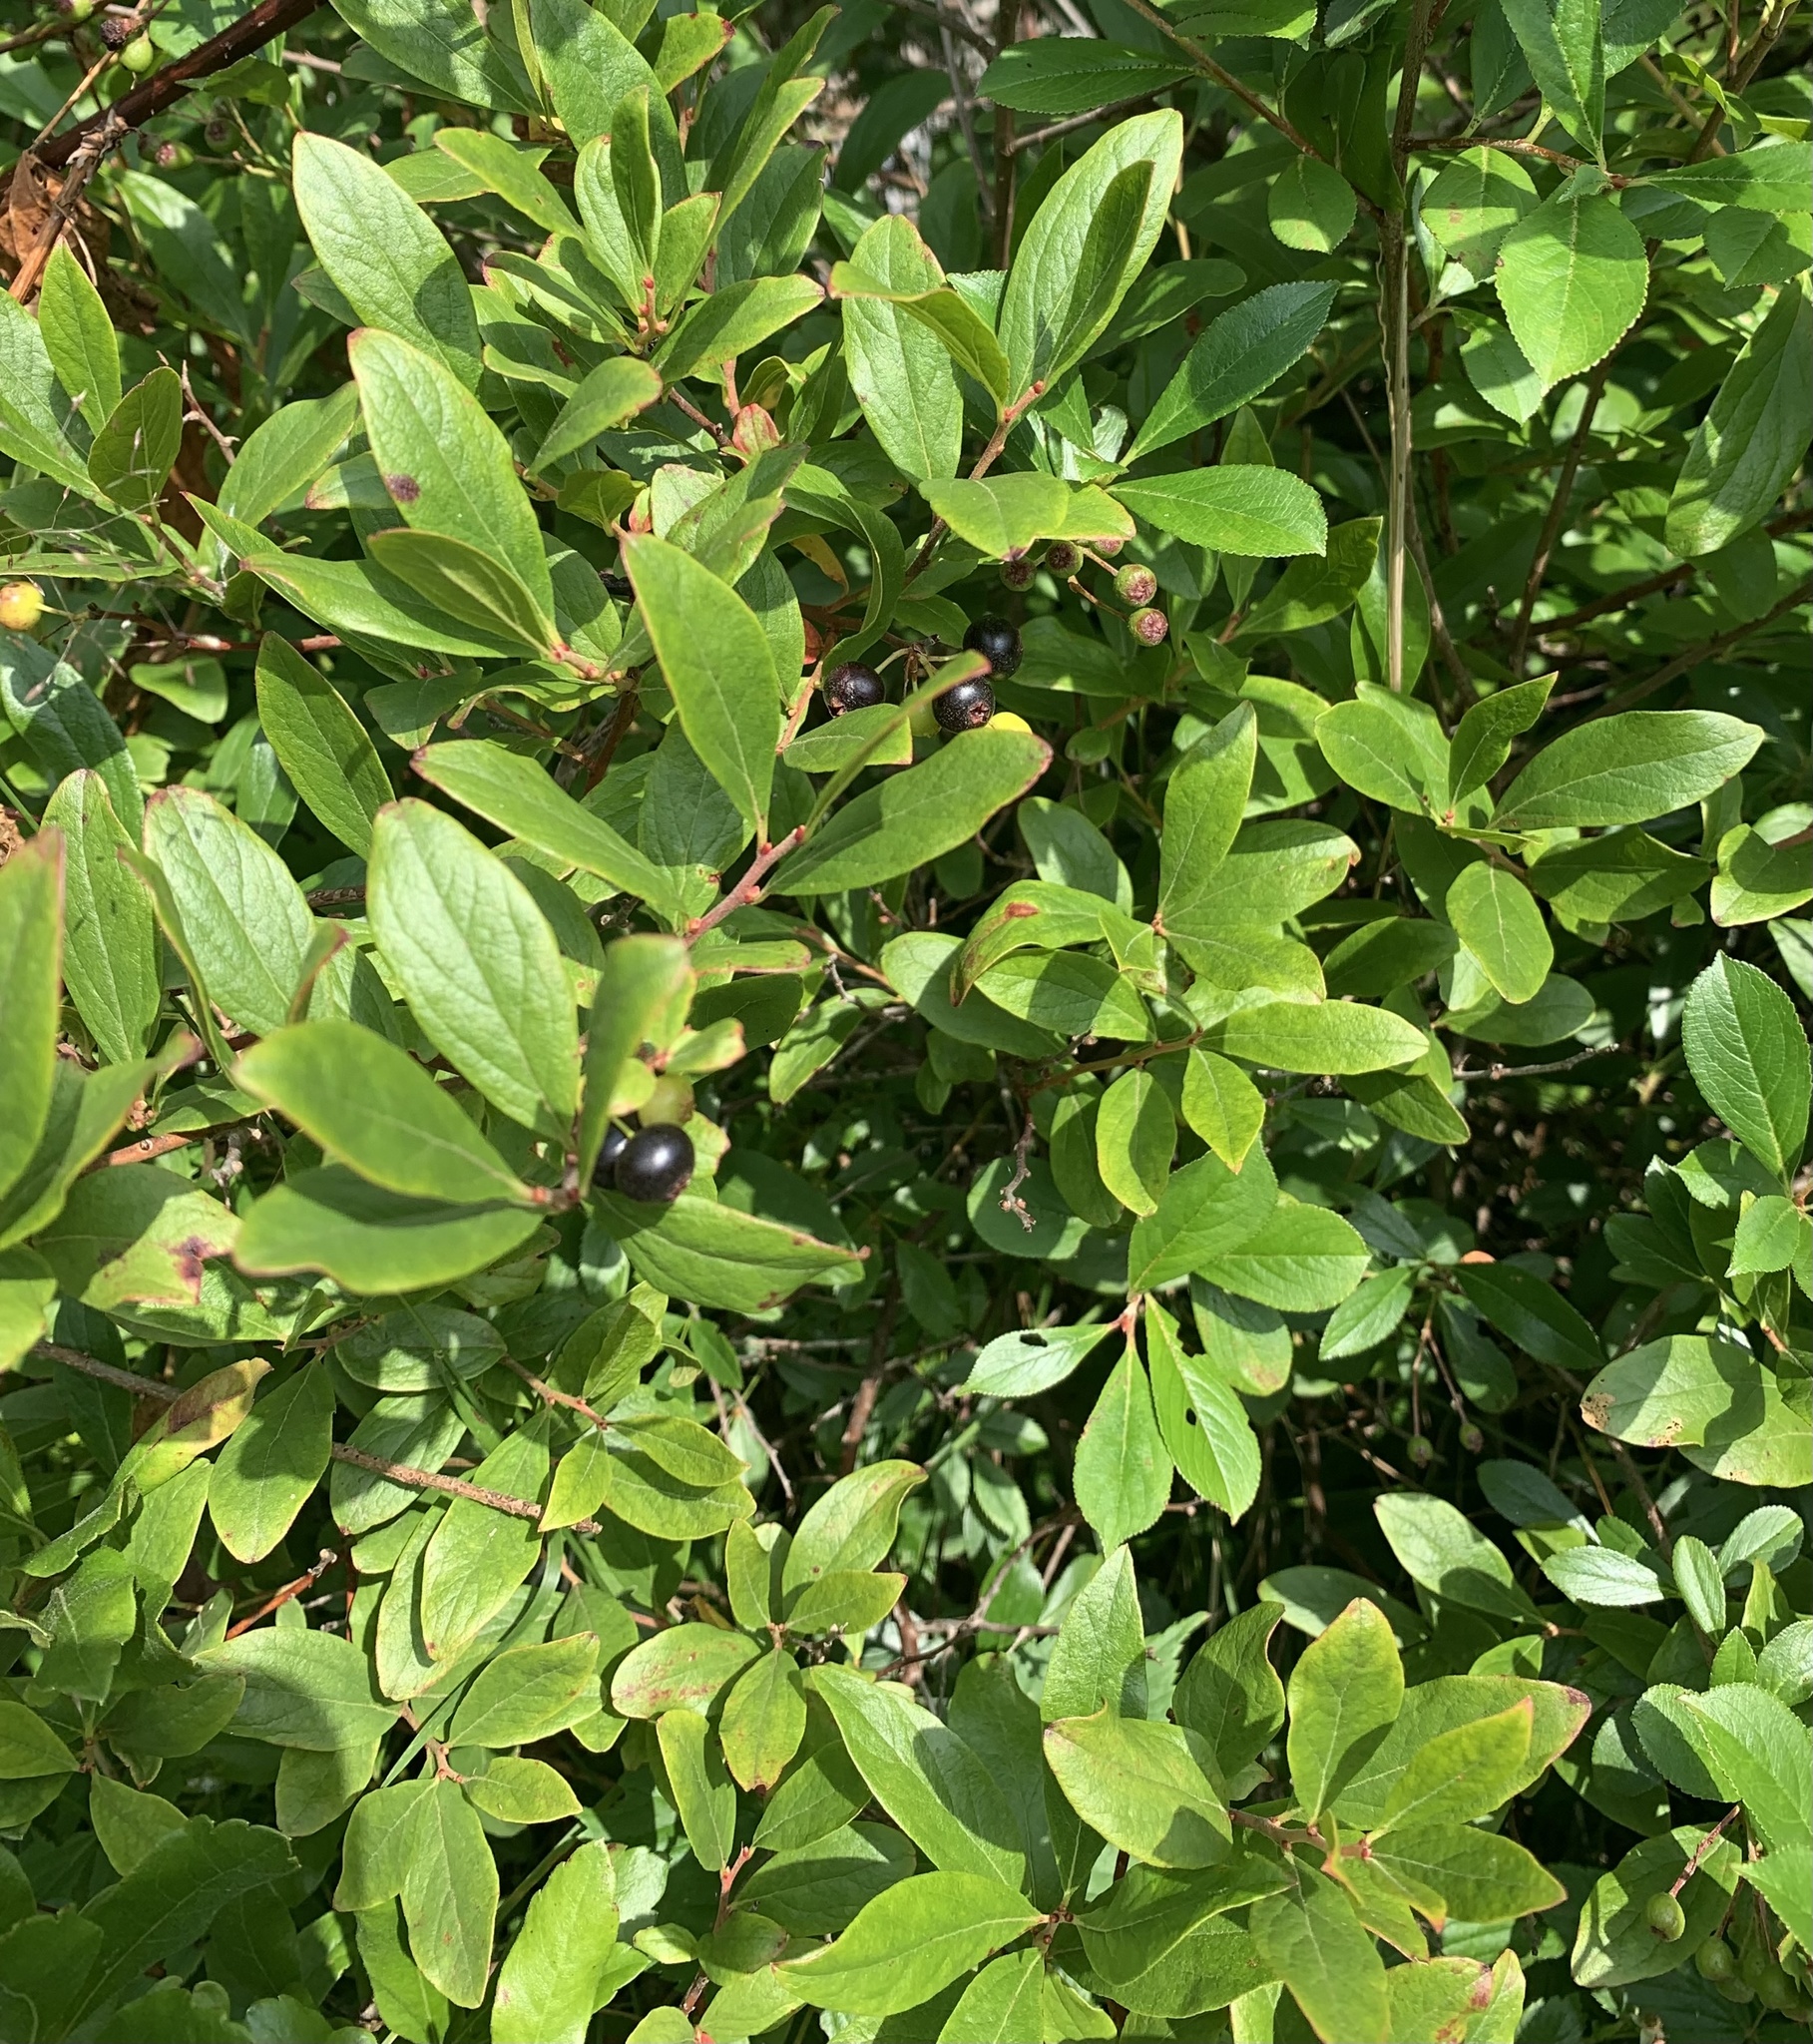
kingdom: Plantae
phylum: Tracheophyta
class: Magnoliopsida
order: Ericales
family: Ericaceae
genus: Gaylussacia
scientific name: Gaylussacia baccata
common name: Black huckleberry
